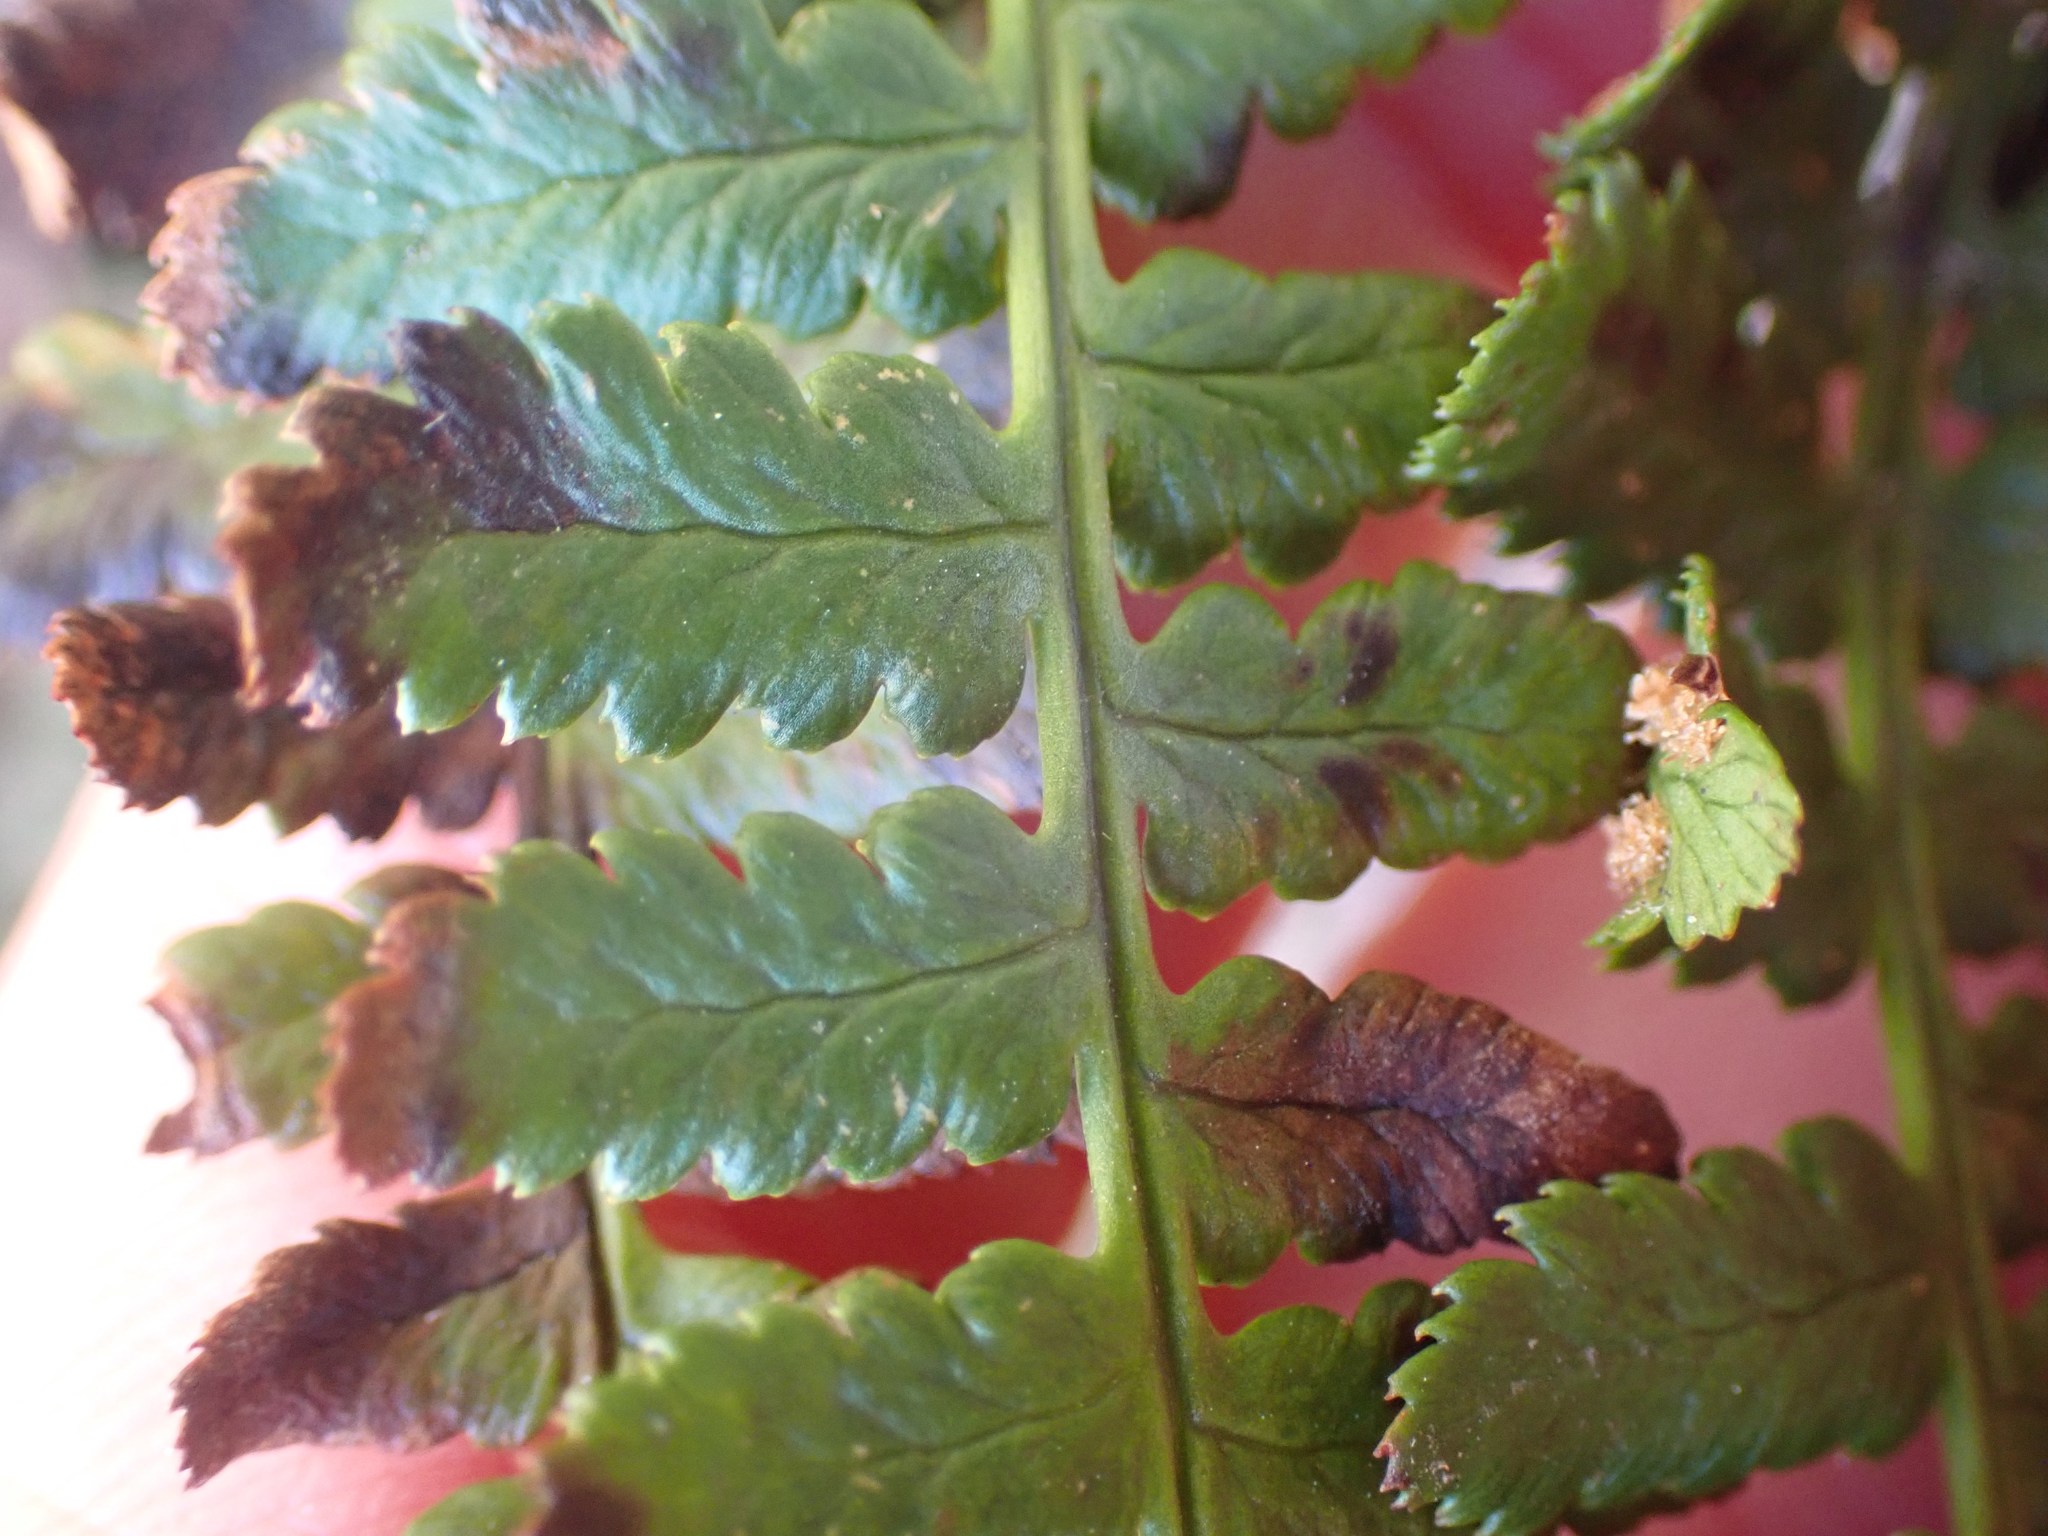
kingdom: Plantae
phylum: Tracheophyta
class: Polypodiopsida
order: Polypodiales
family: Dryopteridaceae
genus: Dryopteris
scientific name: Dryopteris arguta
